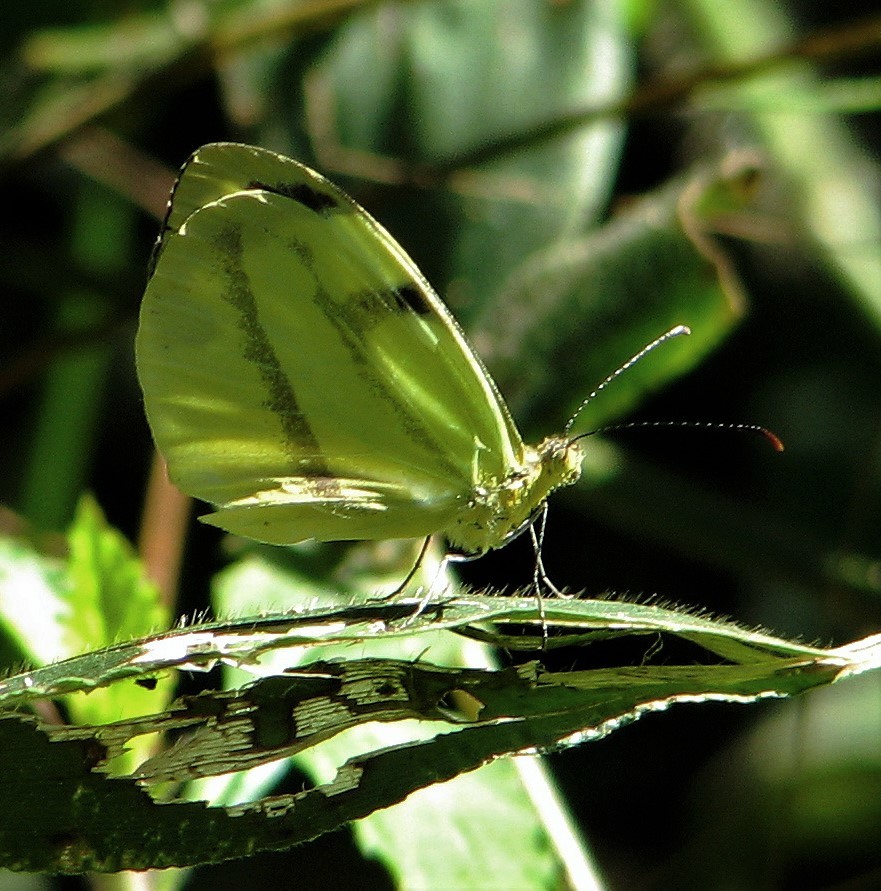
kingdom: Animalia
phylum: Arthropoda
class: Insecta
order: Lepidoptera
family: Pieridae
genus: Enantia
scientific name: Enantia clarissa
